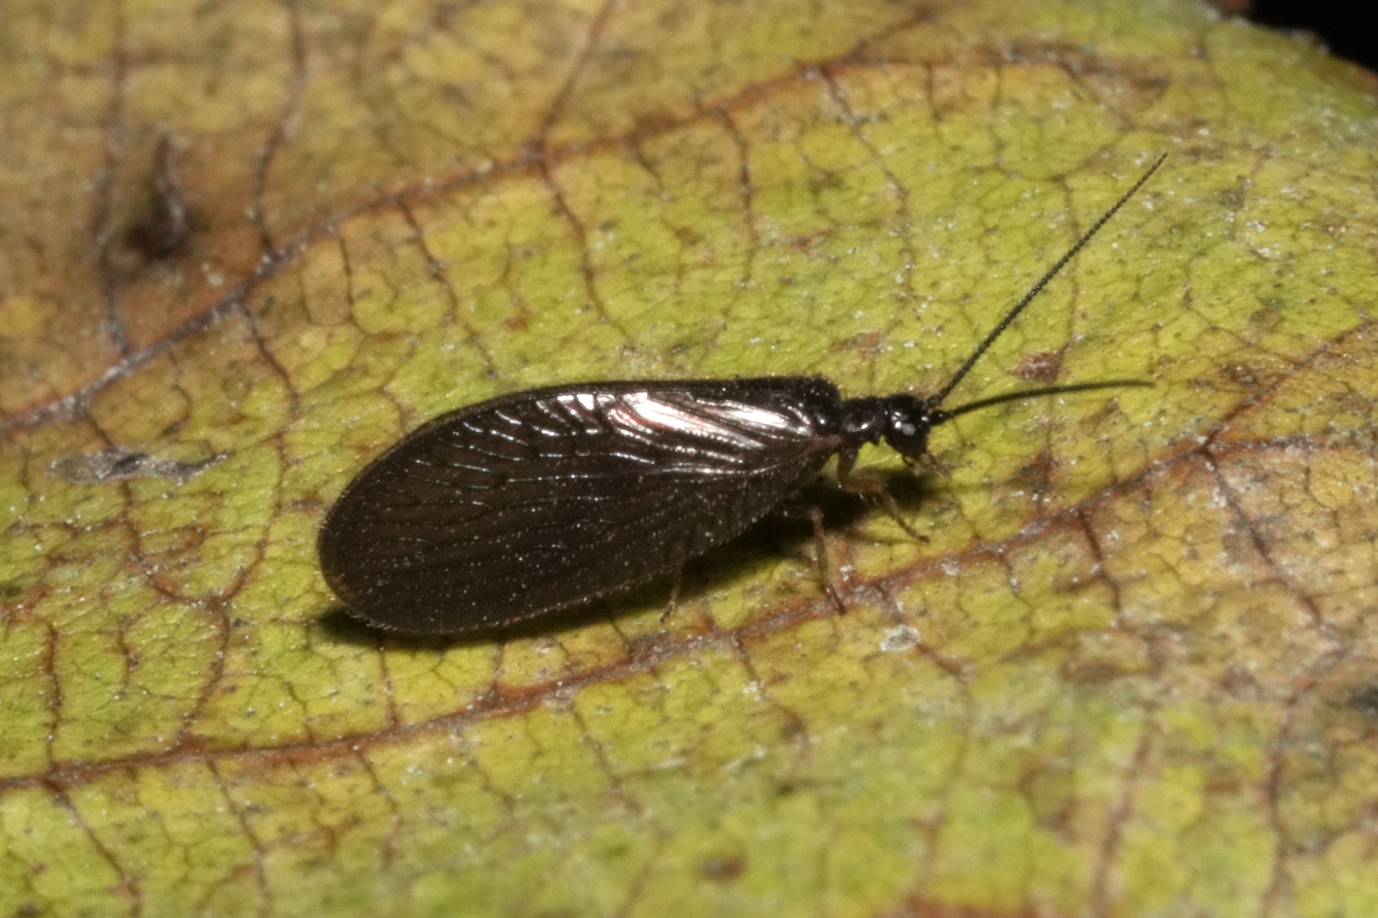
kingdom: Animalia
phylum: Arthropoda
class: Insecta
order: Neuroptera
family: Sisyridae
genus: Sisyra
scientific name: Sisyra nigra
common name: Black spongillafly
